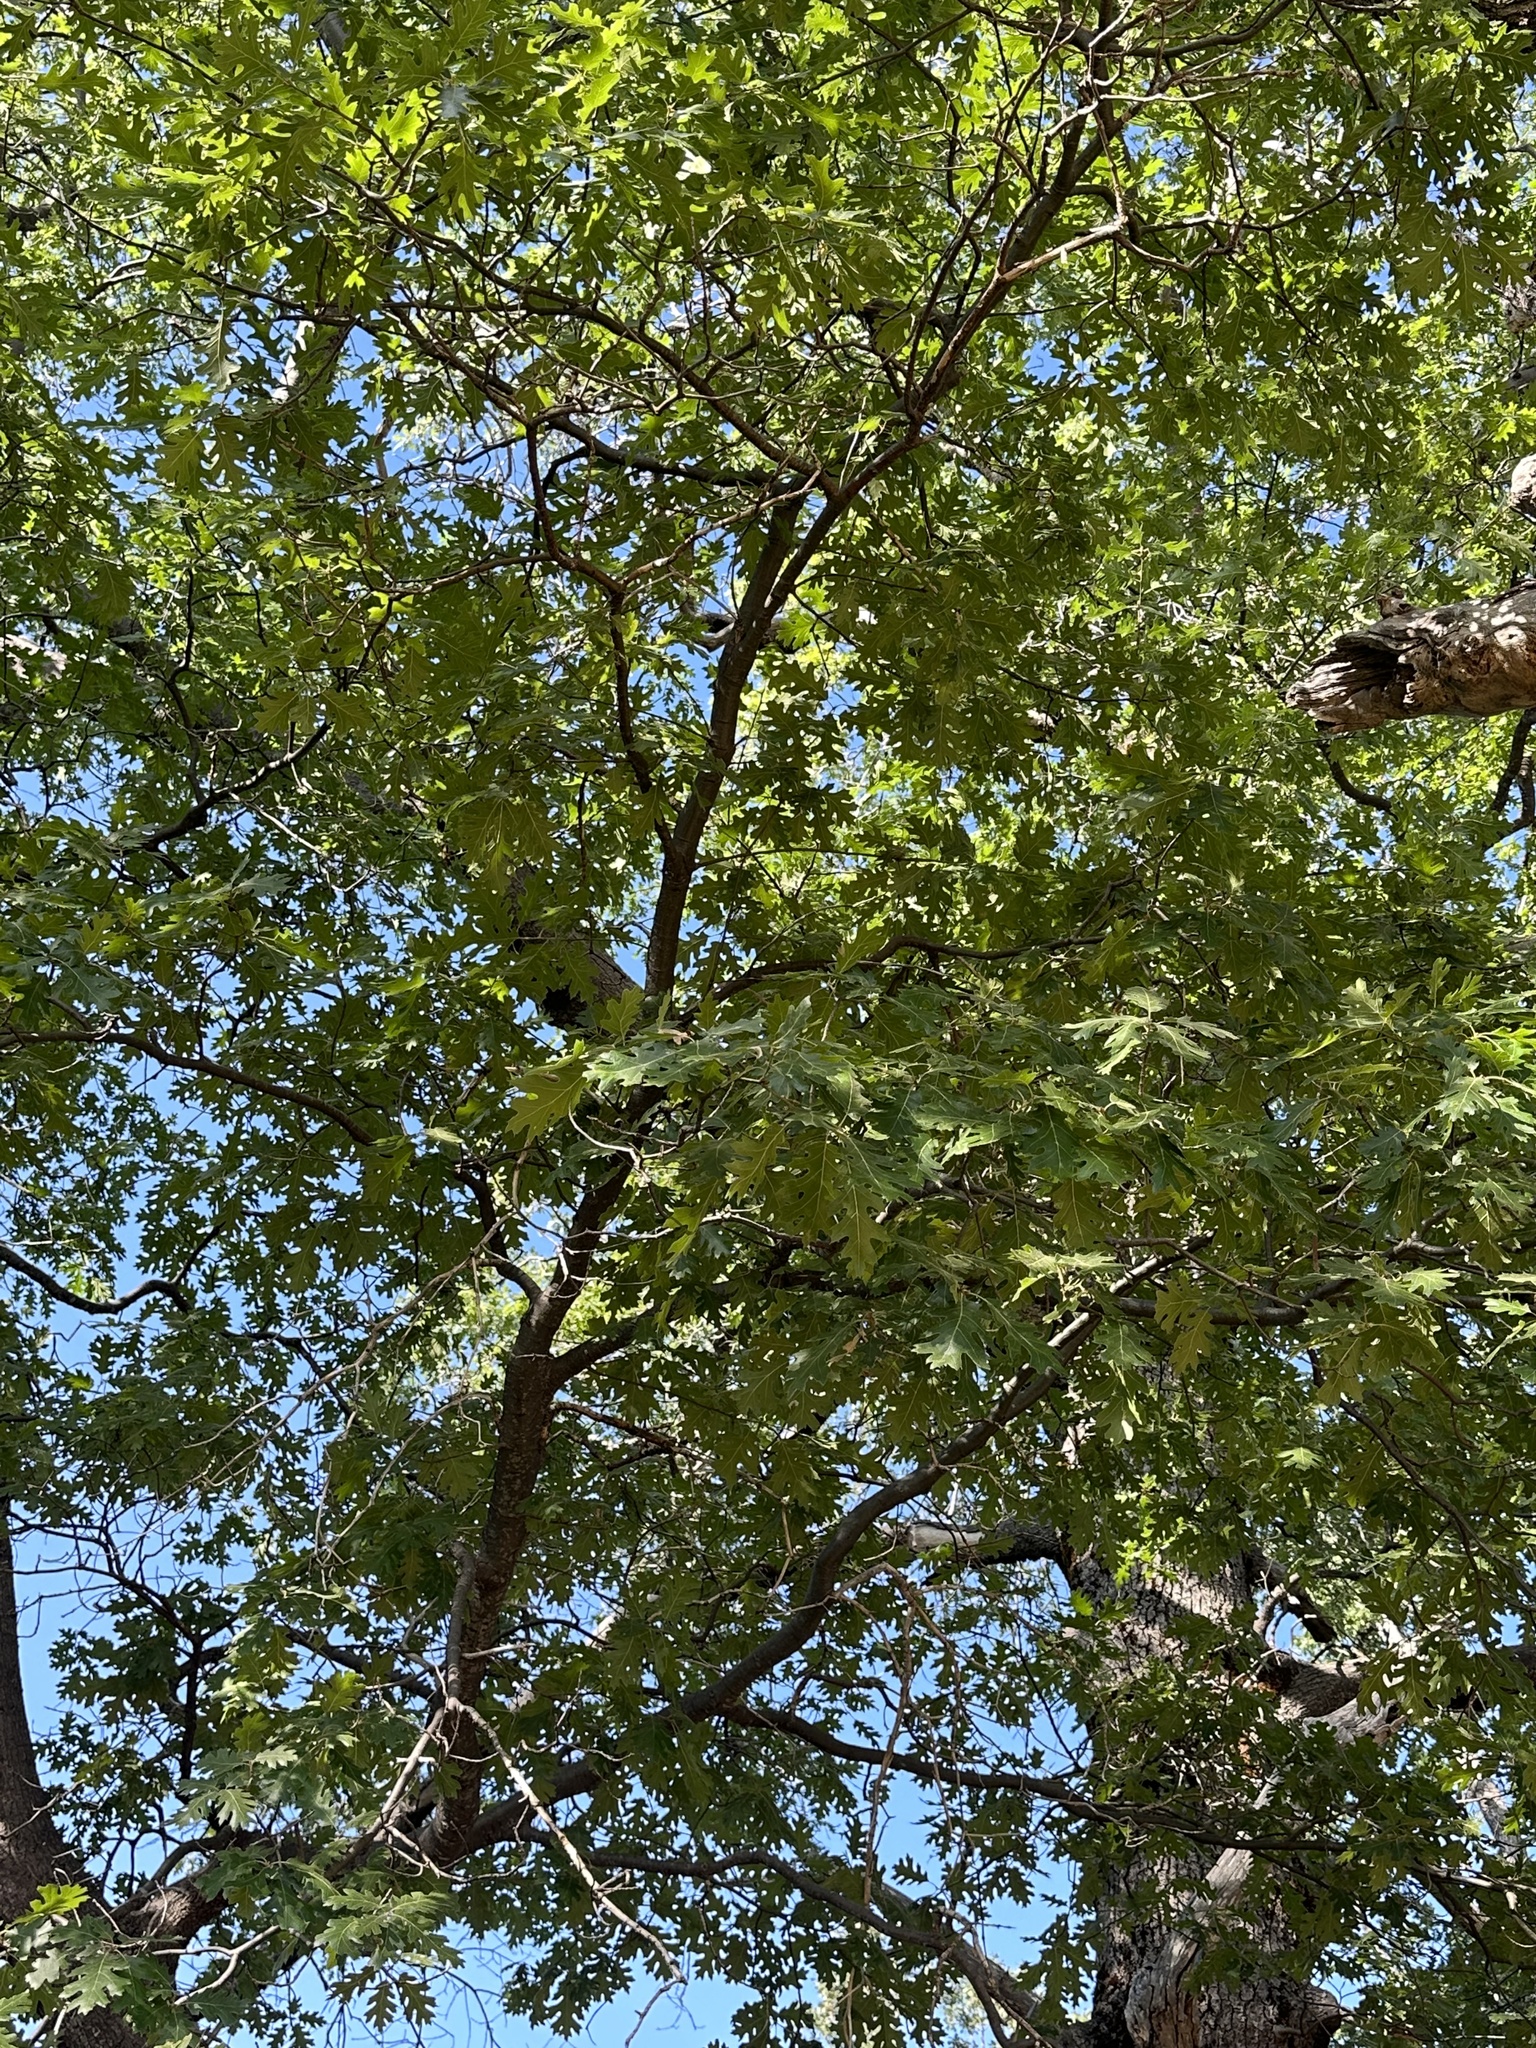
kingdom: Plantae
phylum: Tracheophyta
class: Magnoliopsida
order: Fagales
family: Fagaceae
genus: Quercus
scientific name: Quercus kelloggii
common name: California black oak
